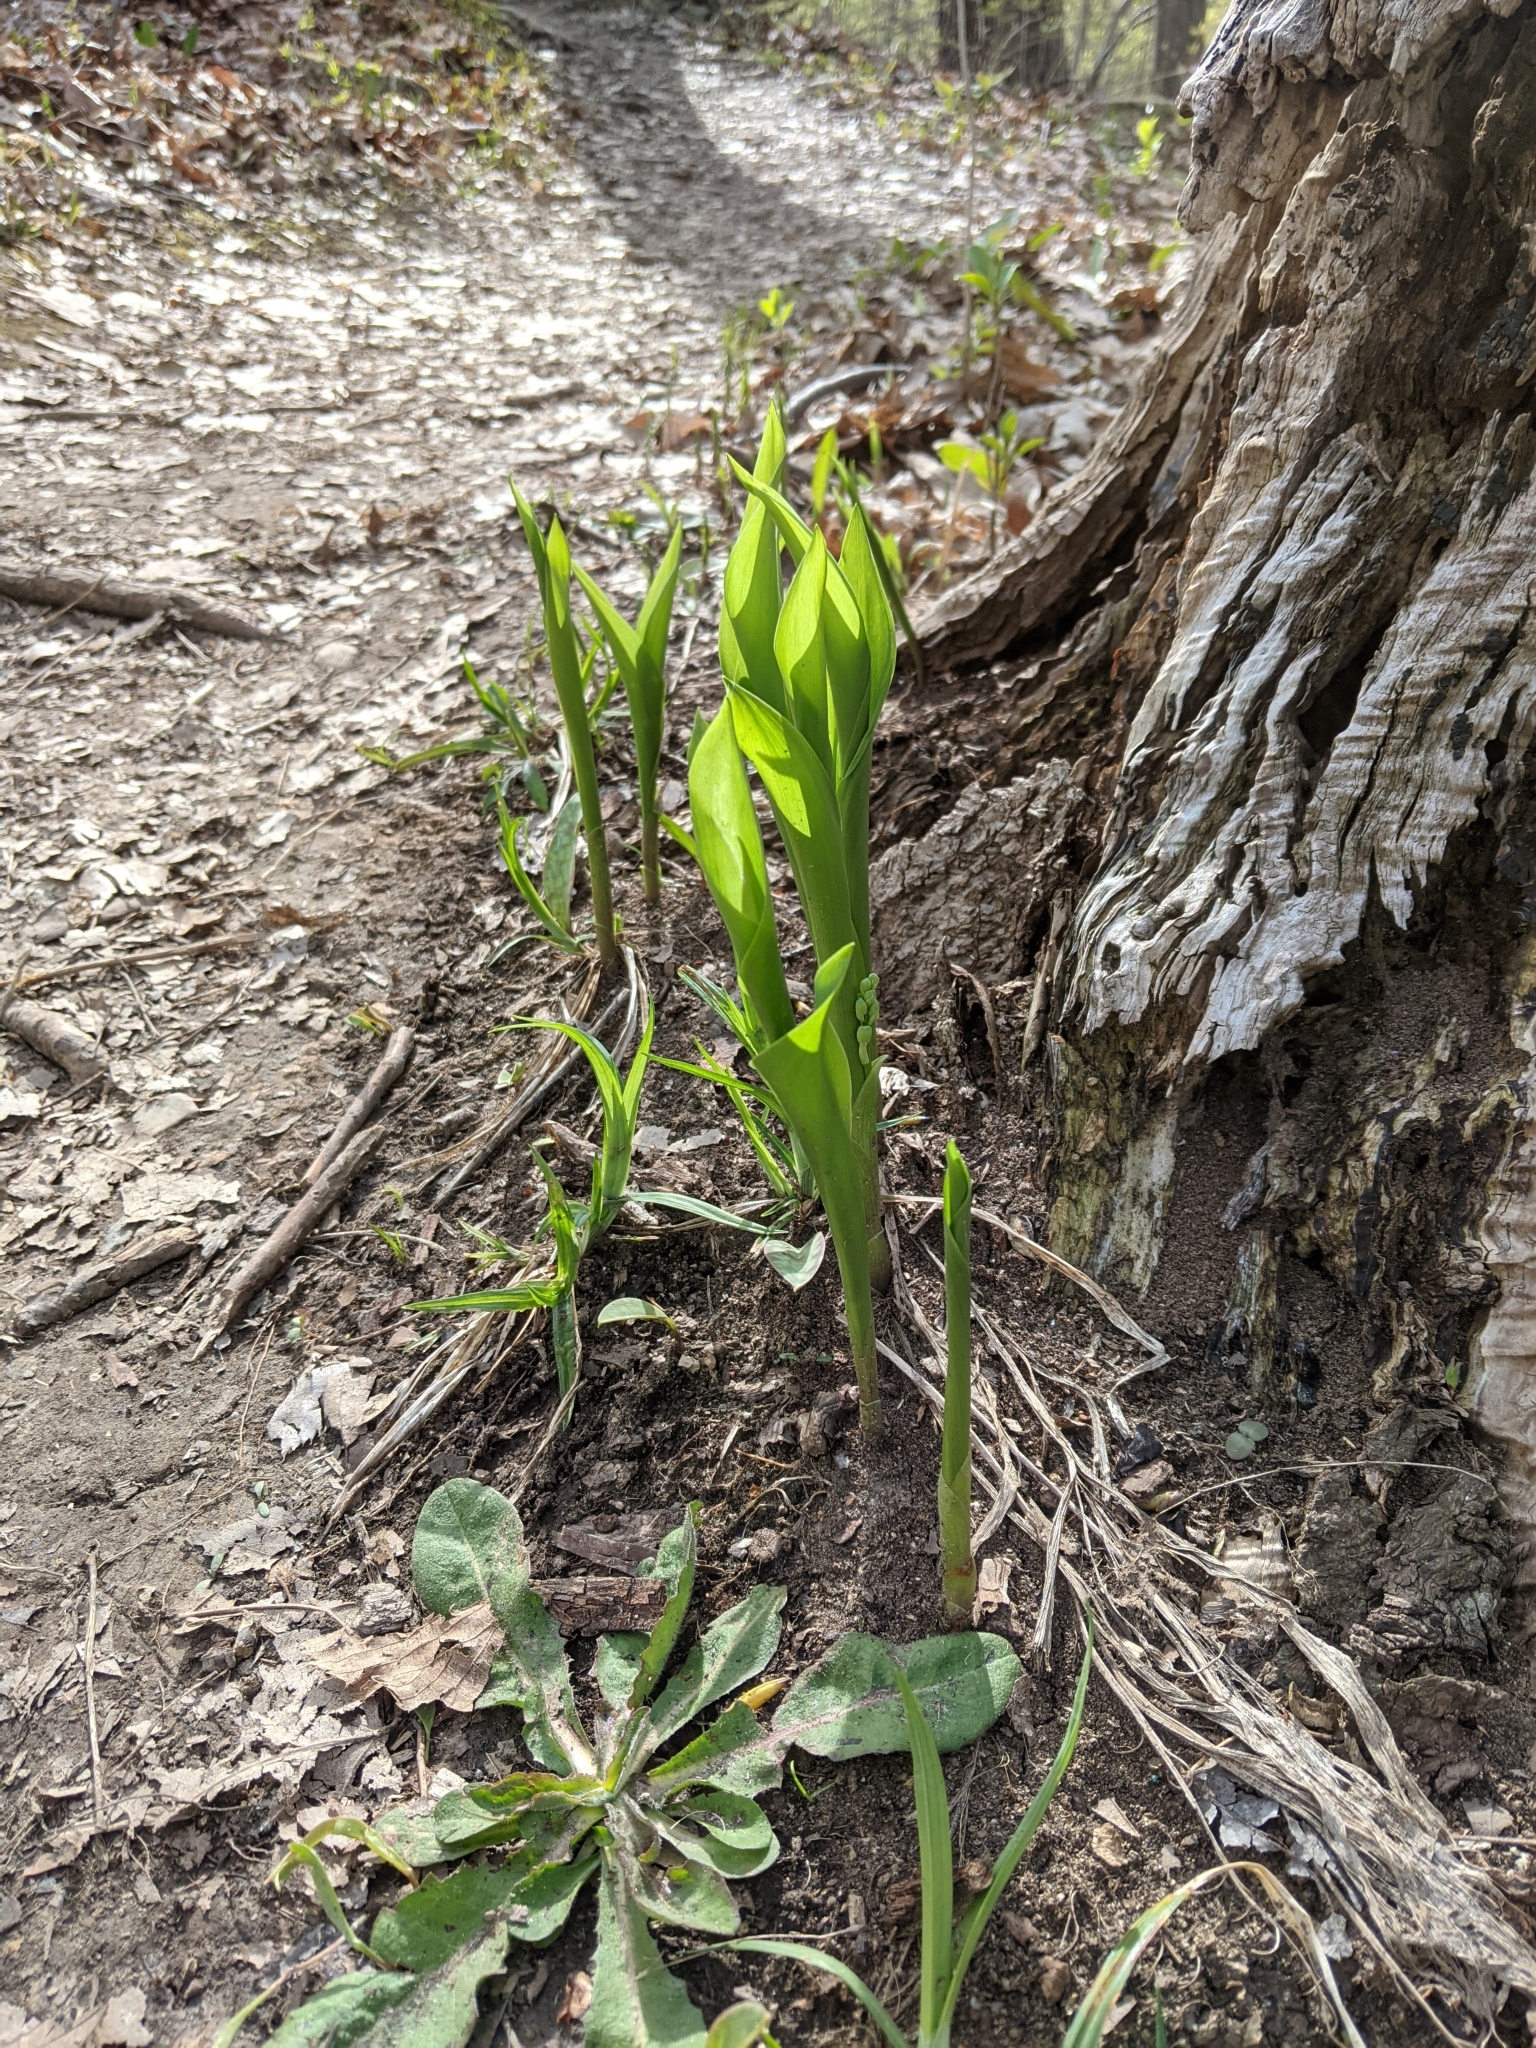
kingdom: Plantae
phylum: Tracheophyta
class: Liliopsida
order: Asparagales
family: Asparagaceae
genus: Convallaria
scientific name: Convallaria majalis
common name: Lily-of-the-valley
